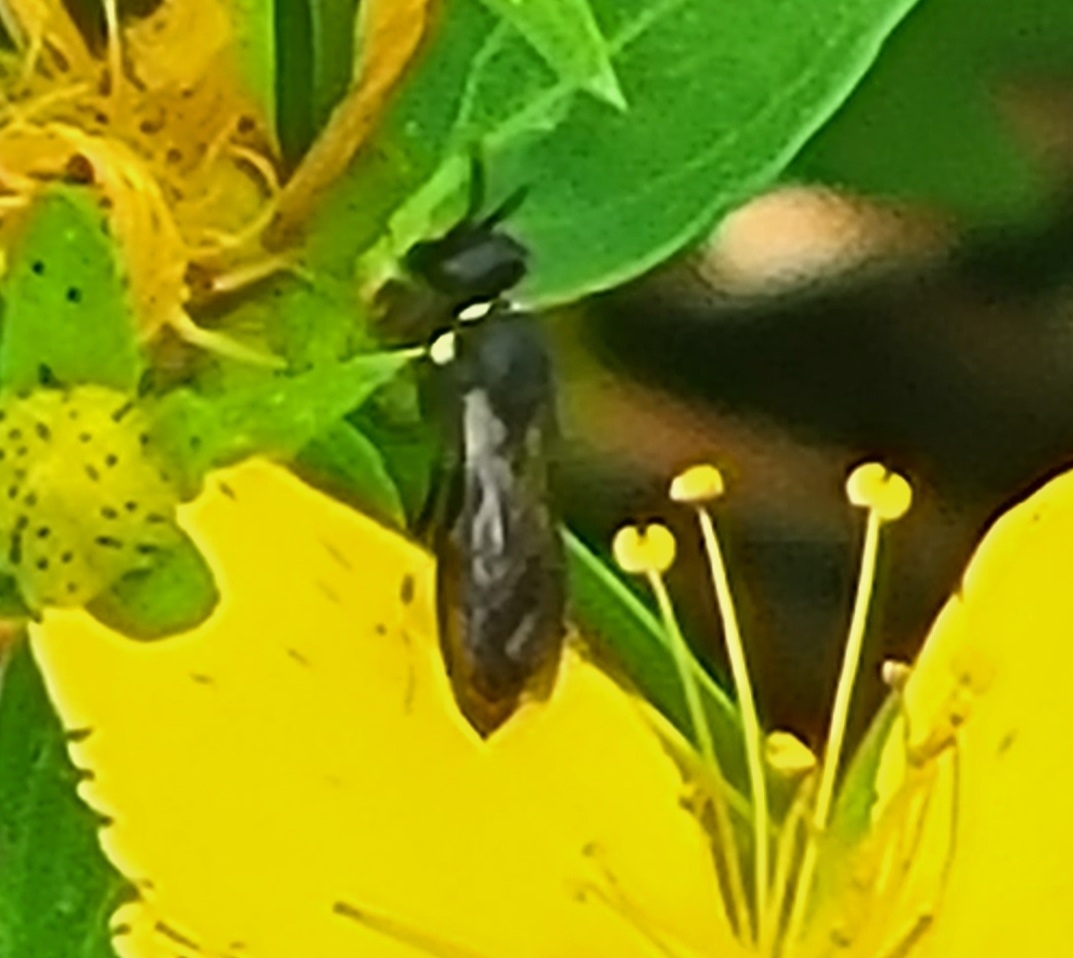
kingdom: Animalia
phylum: Arthropoda
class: Insecta
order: Hymenoptera
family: Colletidae
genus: Hylaeus
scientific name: Hylaeus modestus
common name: Yellow-faced bee
